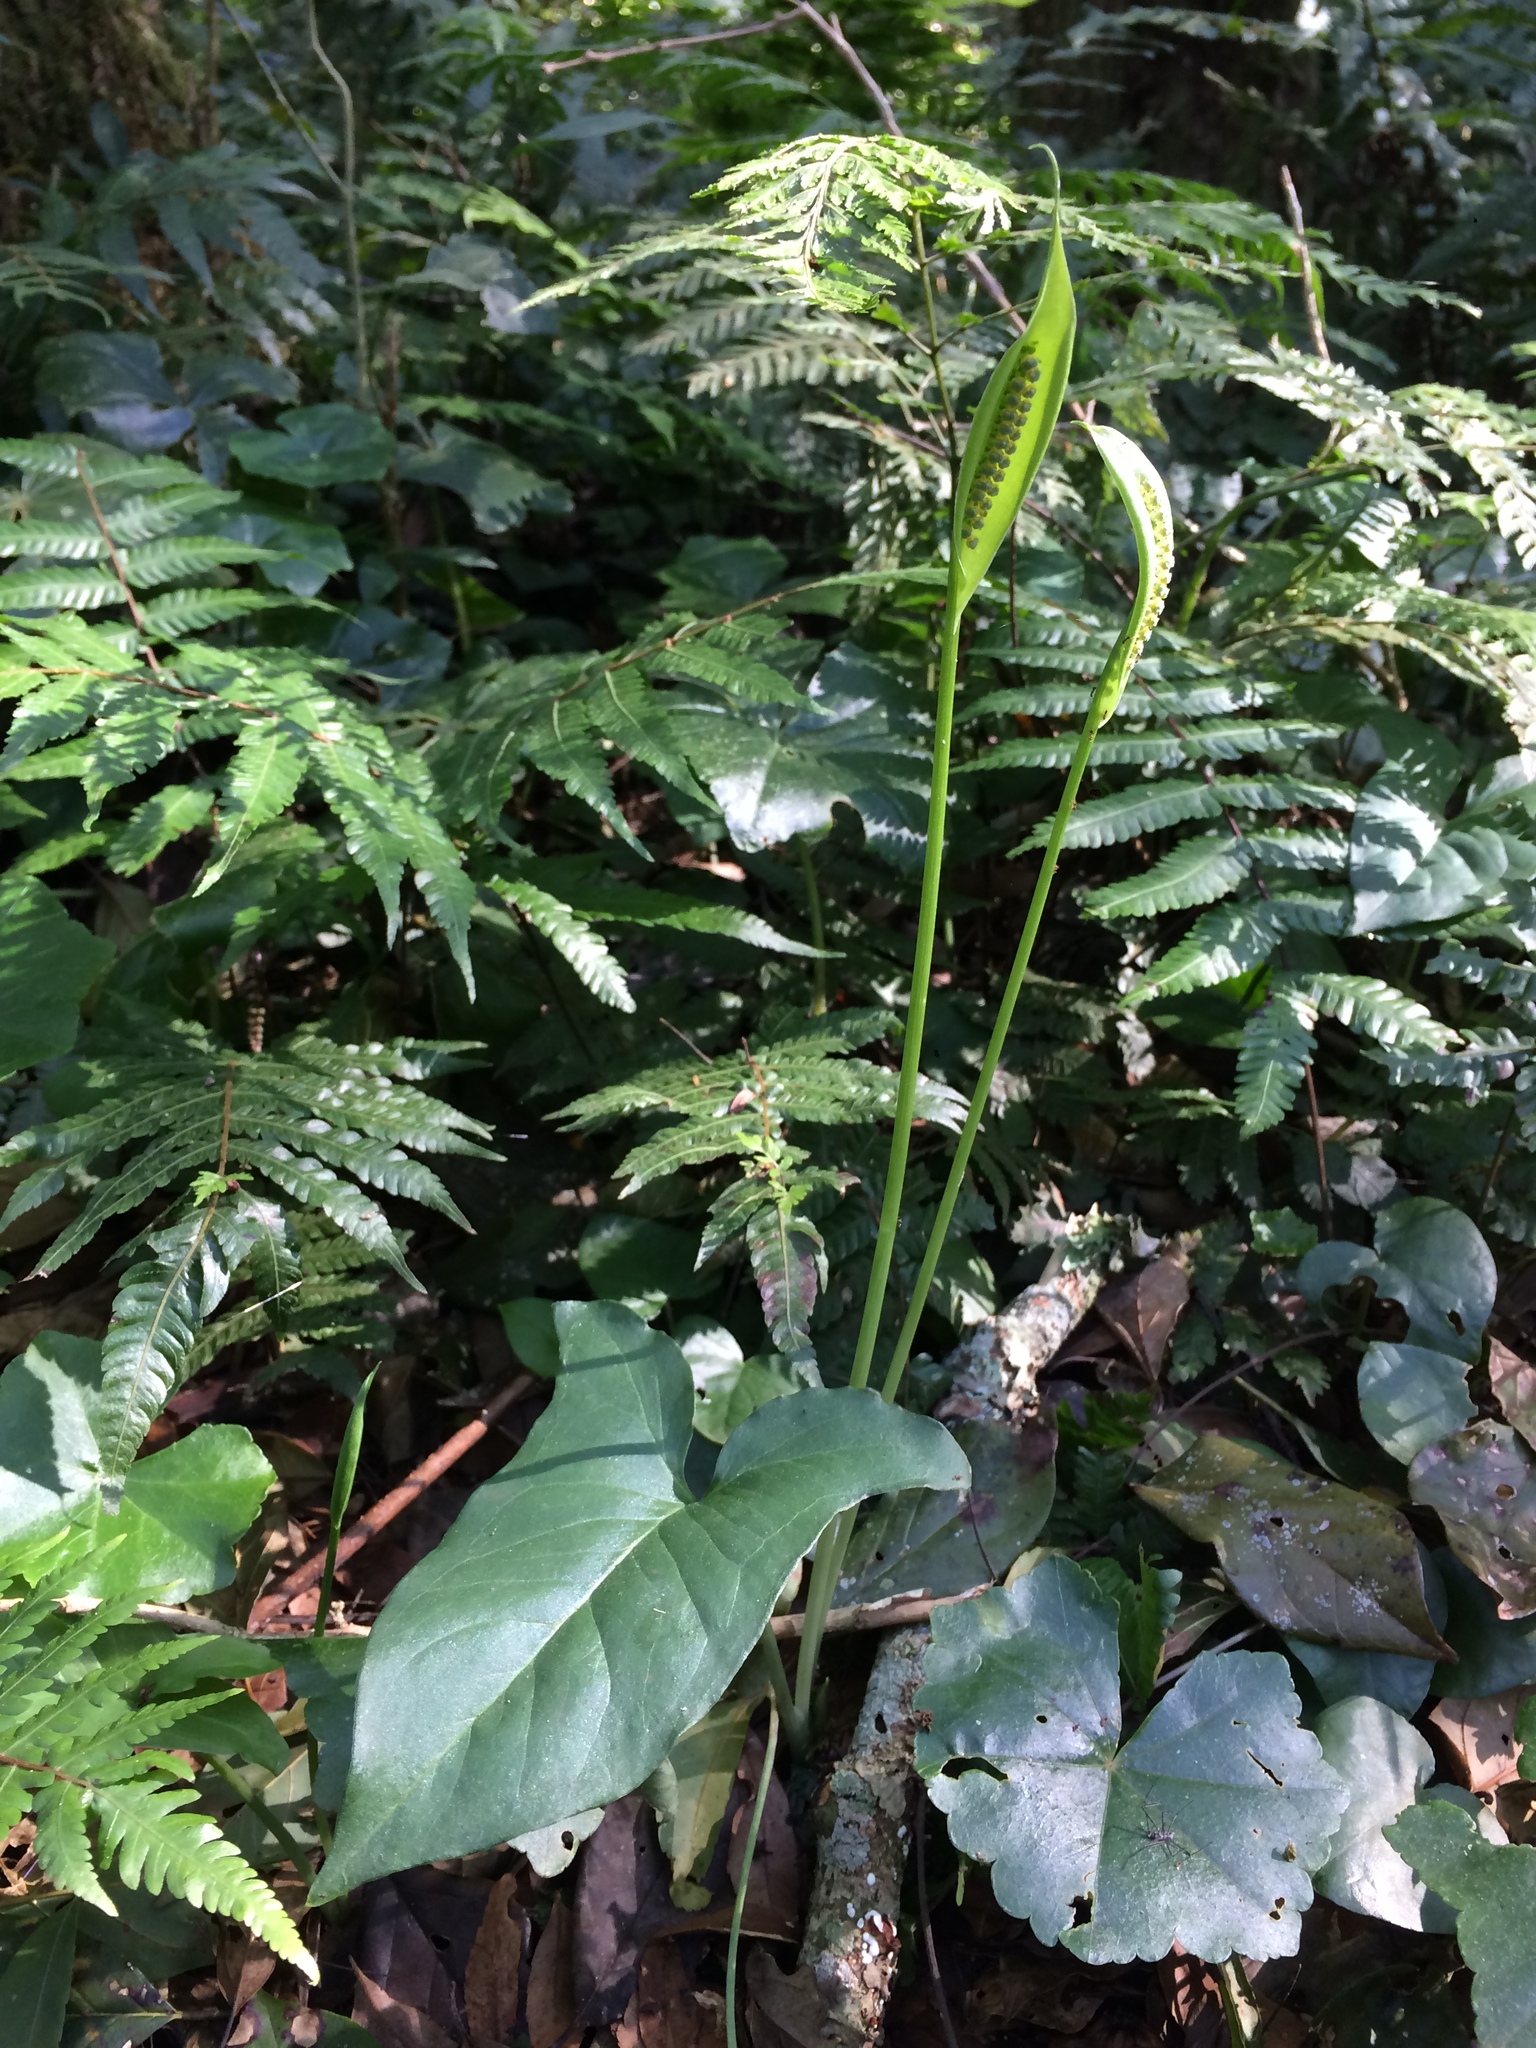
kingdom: Plantae
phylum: Tracheophyta
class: Liliopsida
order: Alismatales
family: Araceae
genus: Spathicarpa
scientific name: Spathicarpa hastifolia
